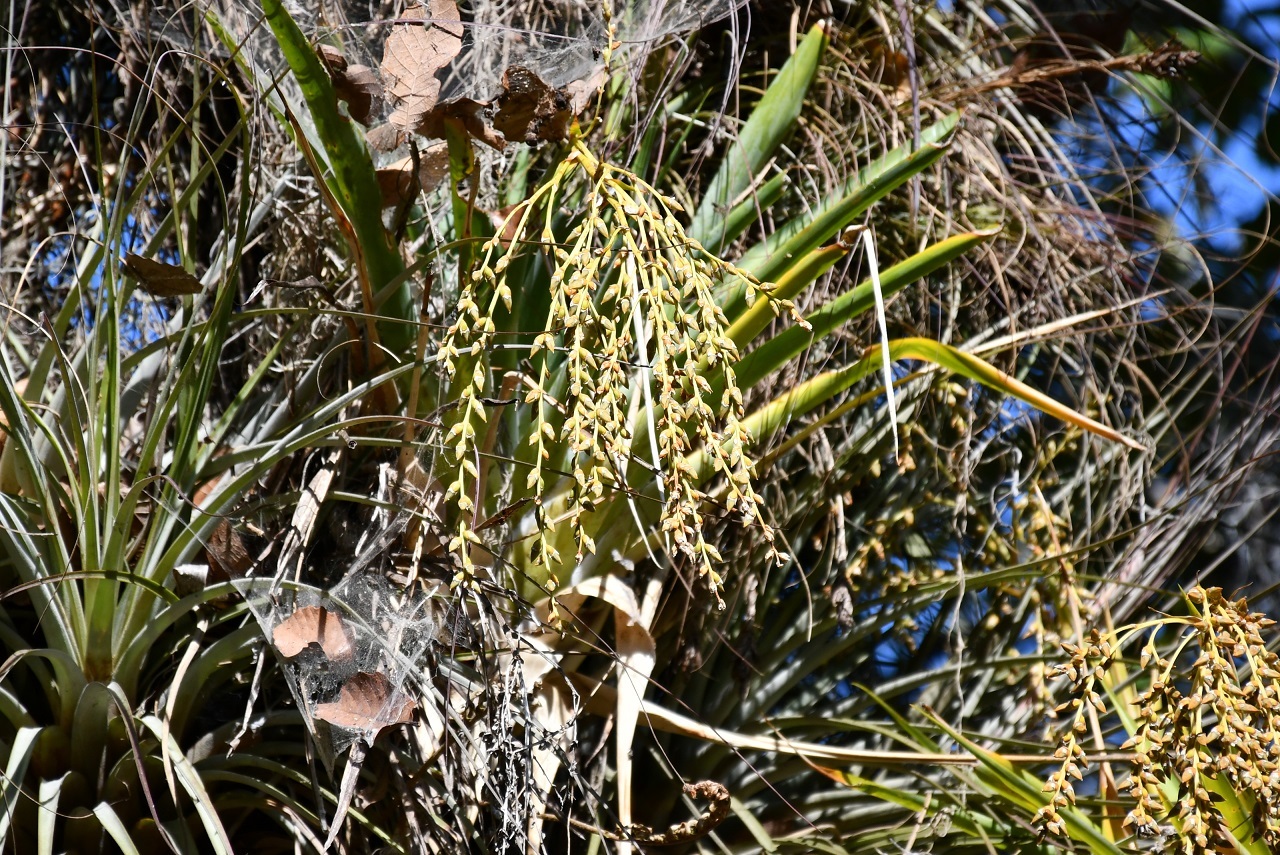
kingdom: Plantae
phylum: Tracheophyta
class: Liliopsida
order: Poales
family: Bromeliaceae
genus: Catopsis
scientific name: Catopsis paniculata
